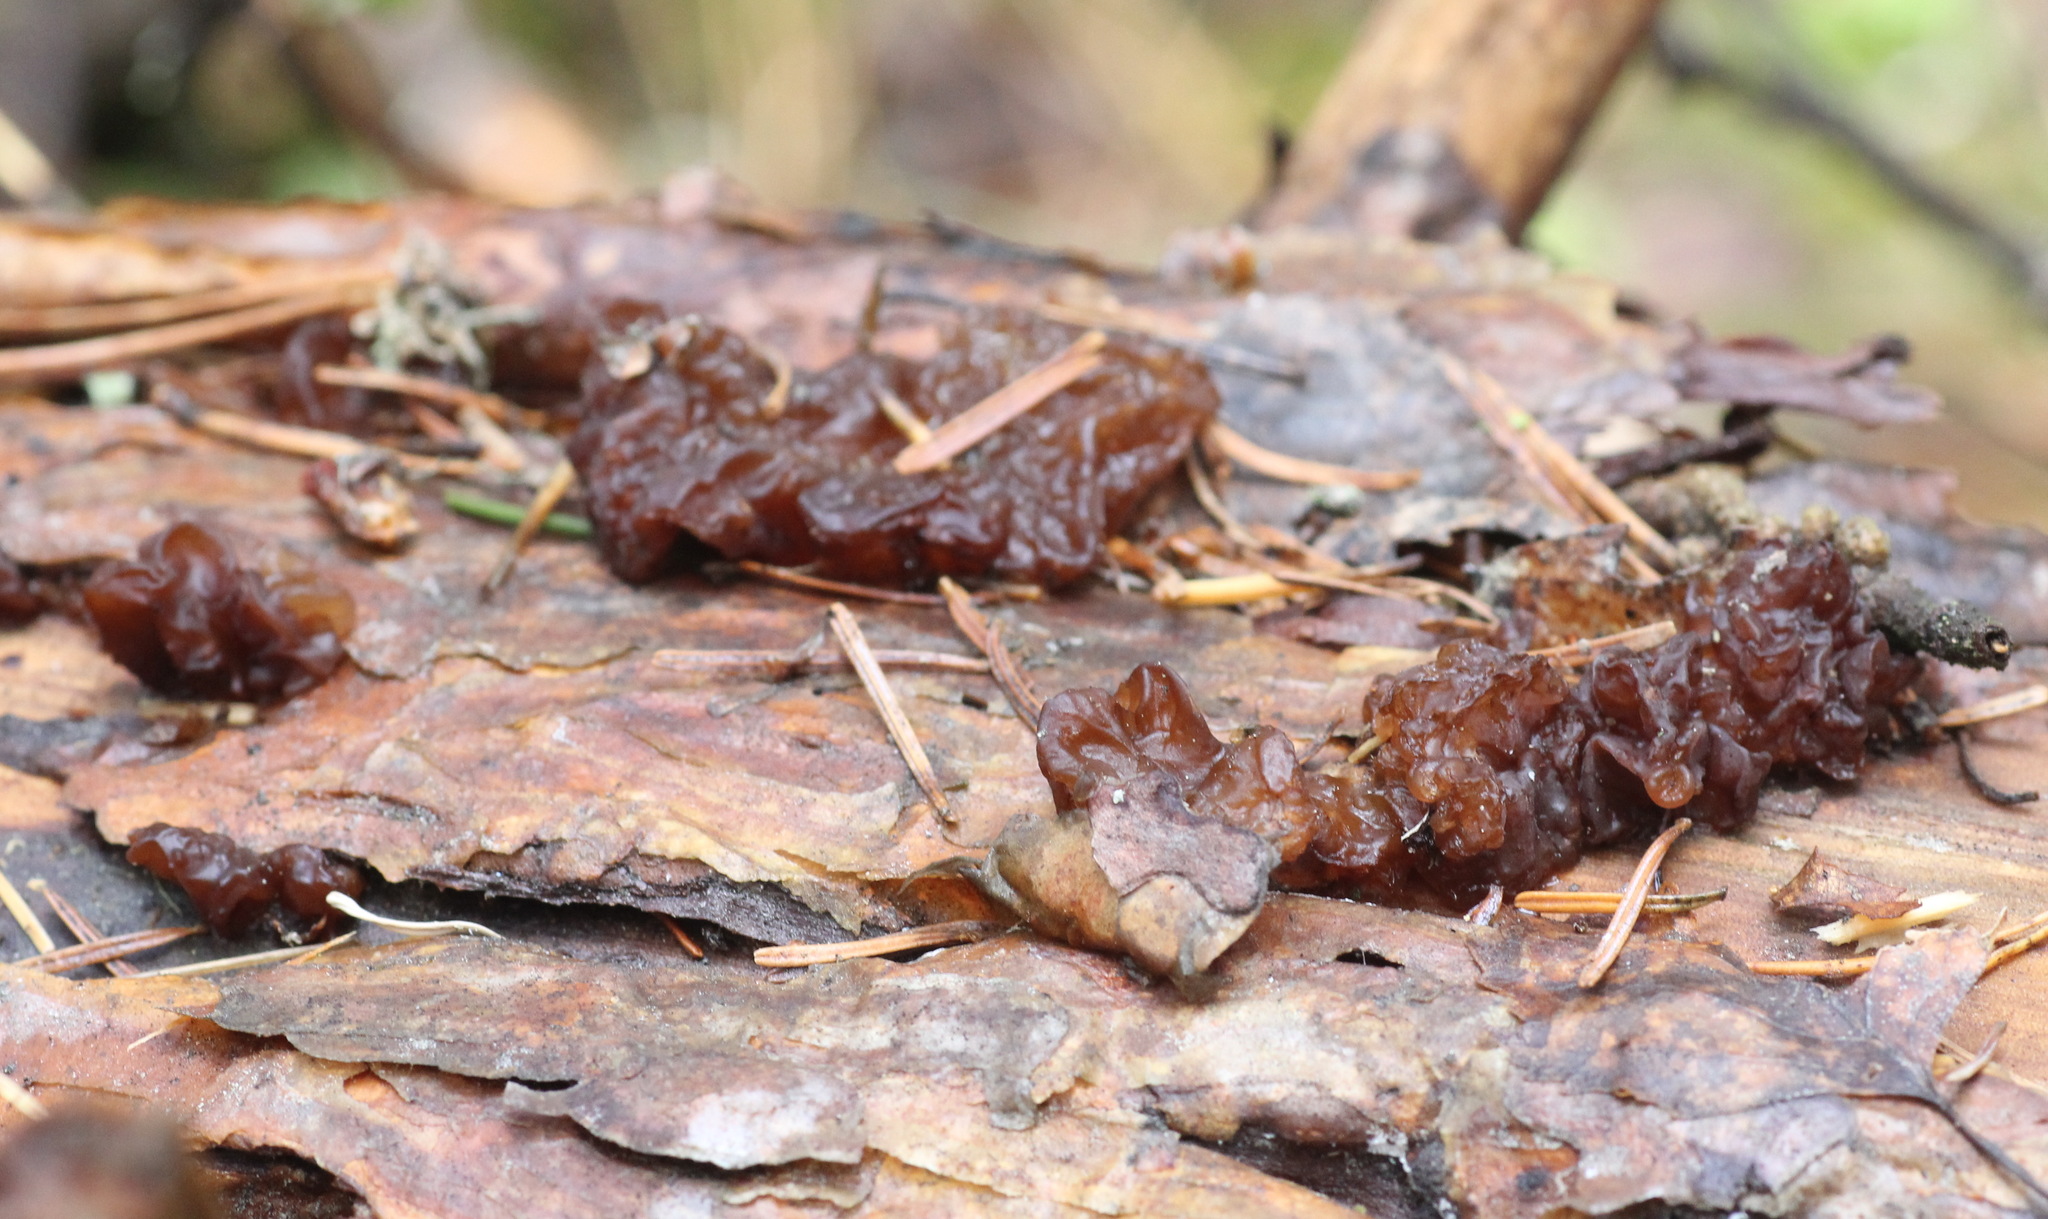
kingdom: Fungi
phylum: Basidiomycota
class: Agaricomycetes
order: Auriculariales
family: Auriculariaceae
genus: Exidia
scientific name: Exidia saccharina
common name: Pine jelly
